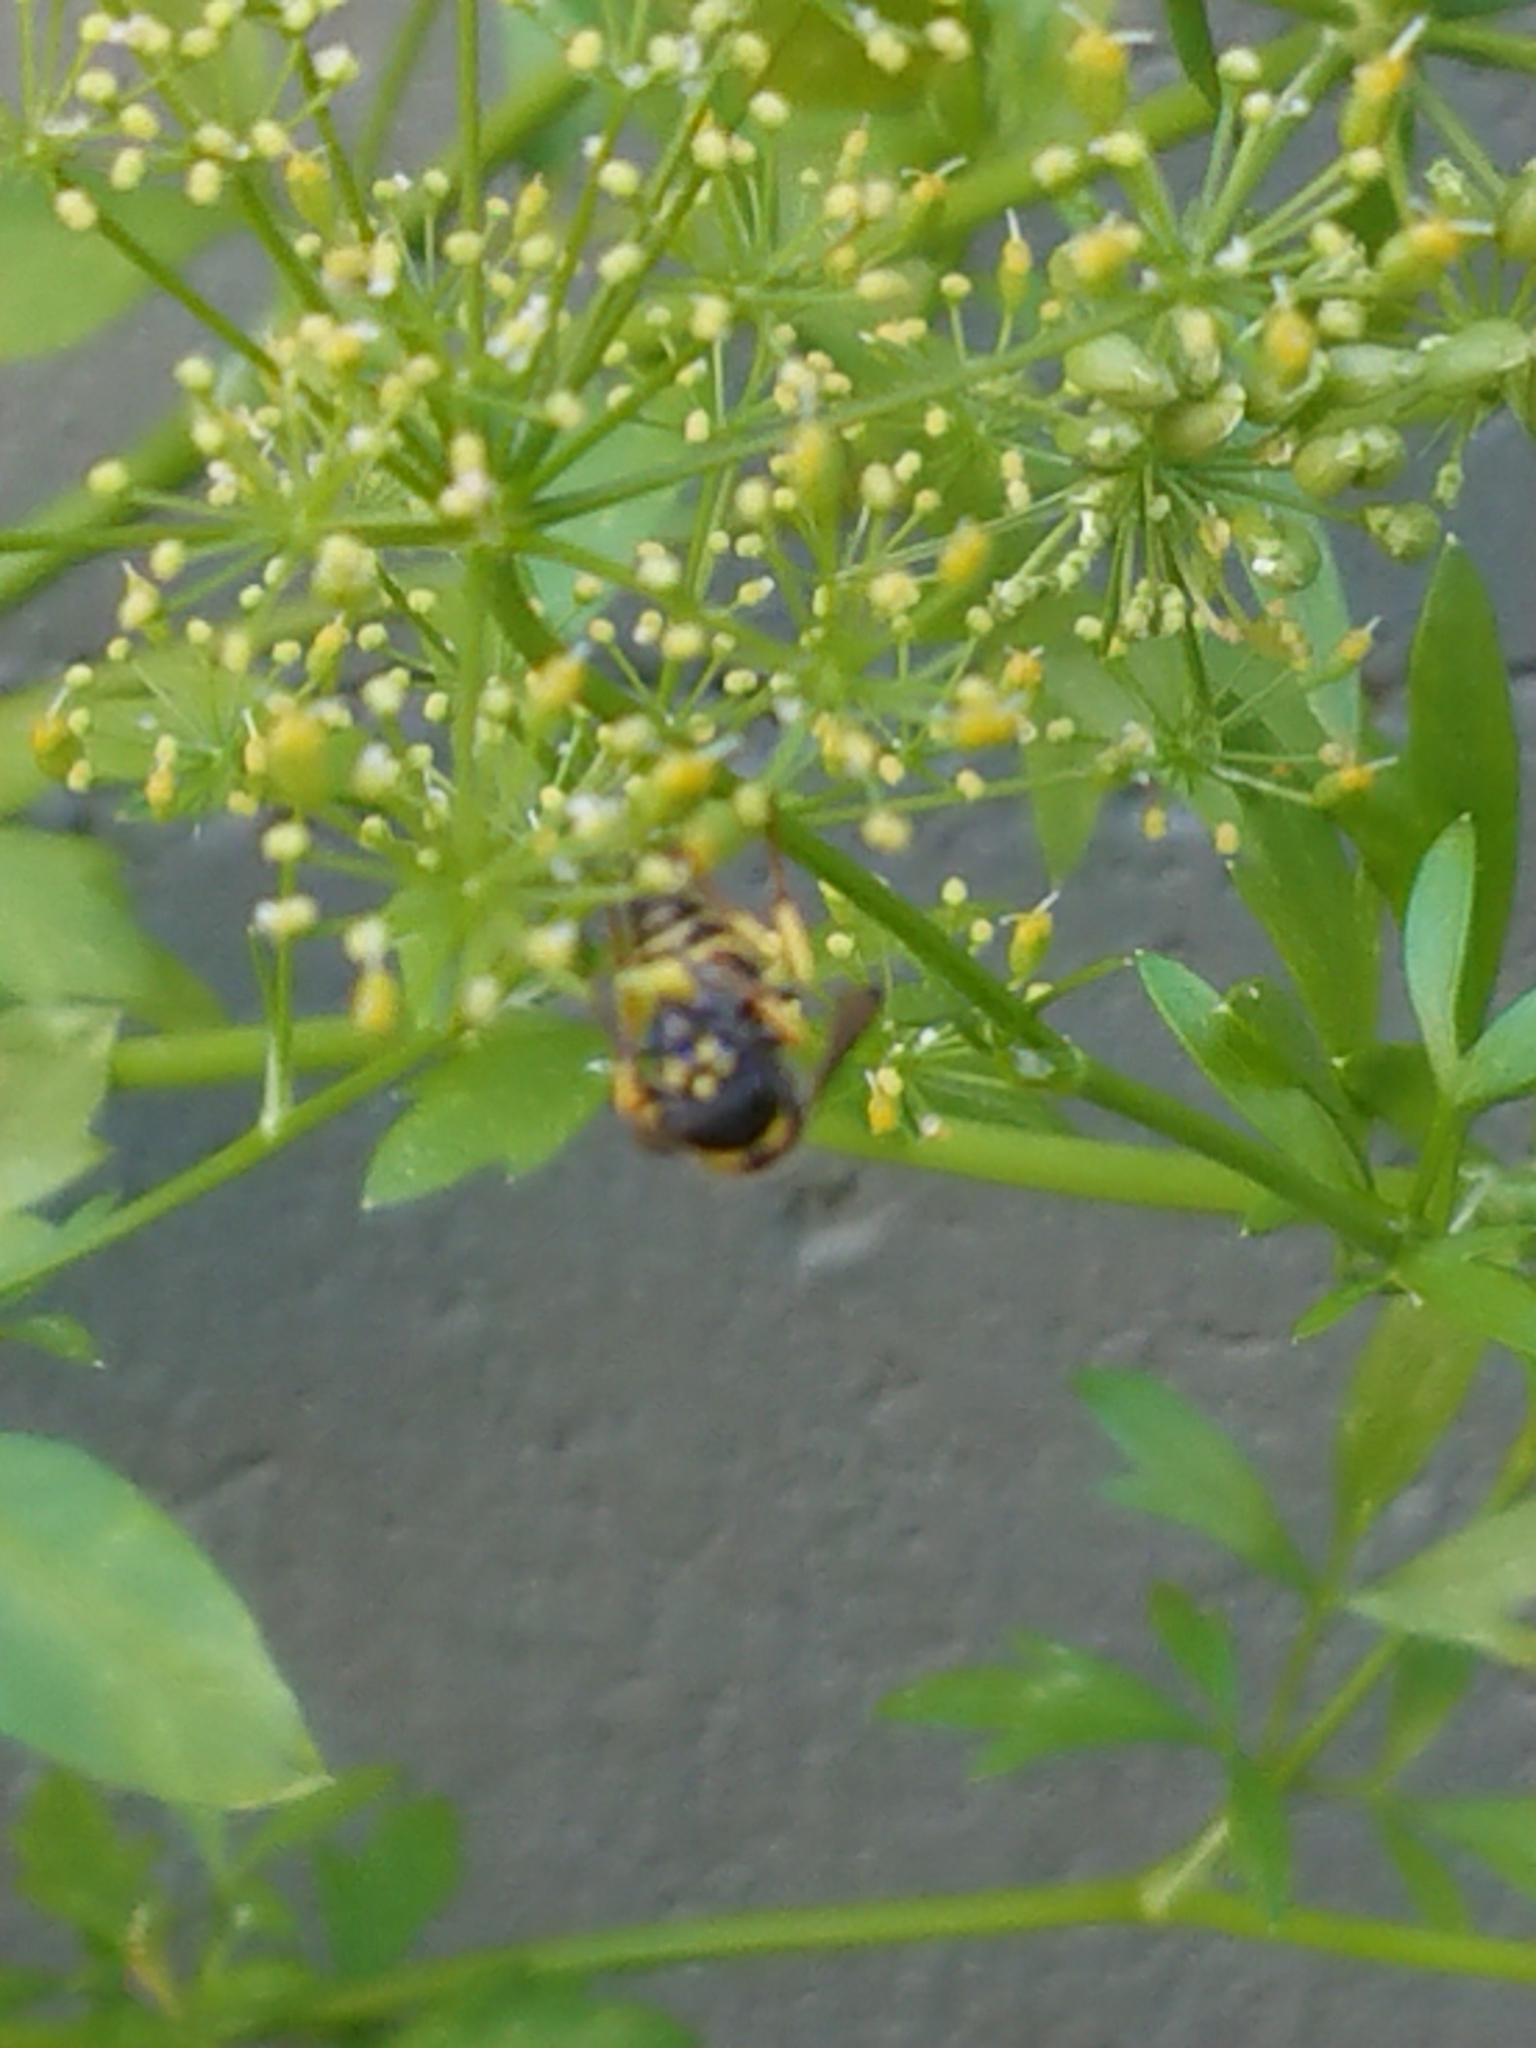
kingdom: Animalia
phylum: Arthropoda
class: Insecta
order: Hymenoptera
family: Vespidae
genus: Ancistrocerus
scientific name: Ancistrocerus gazella
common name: European tube wasp
